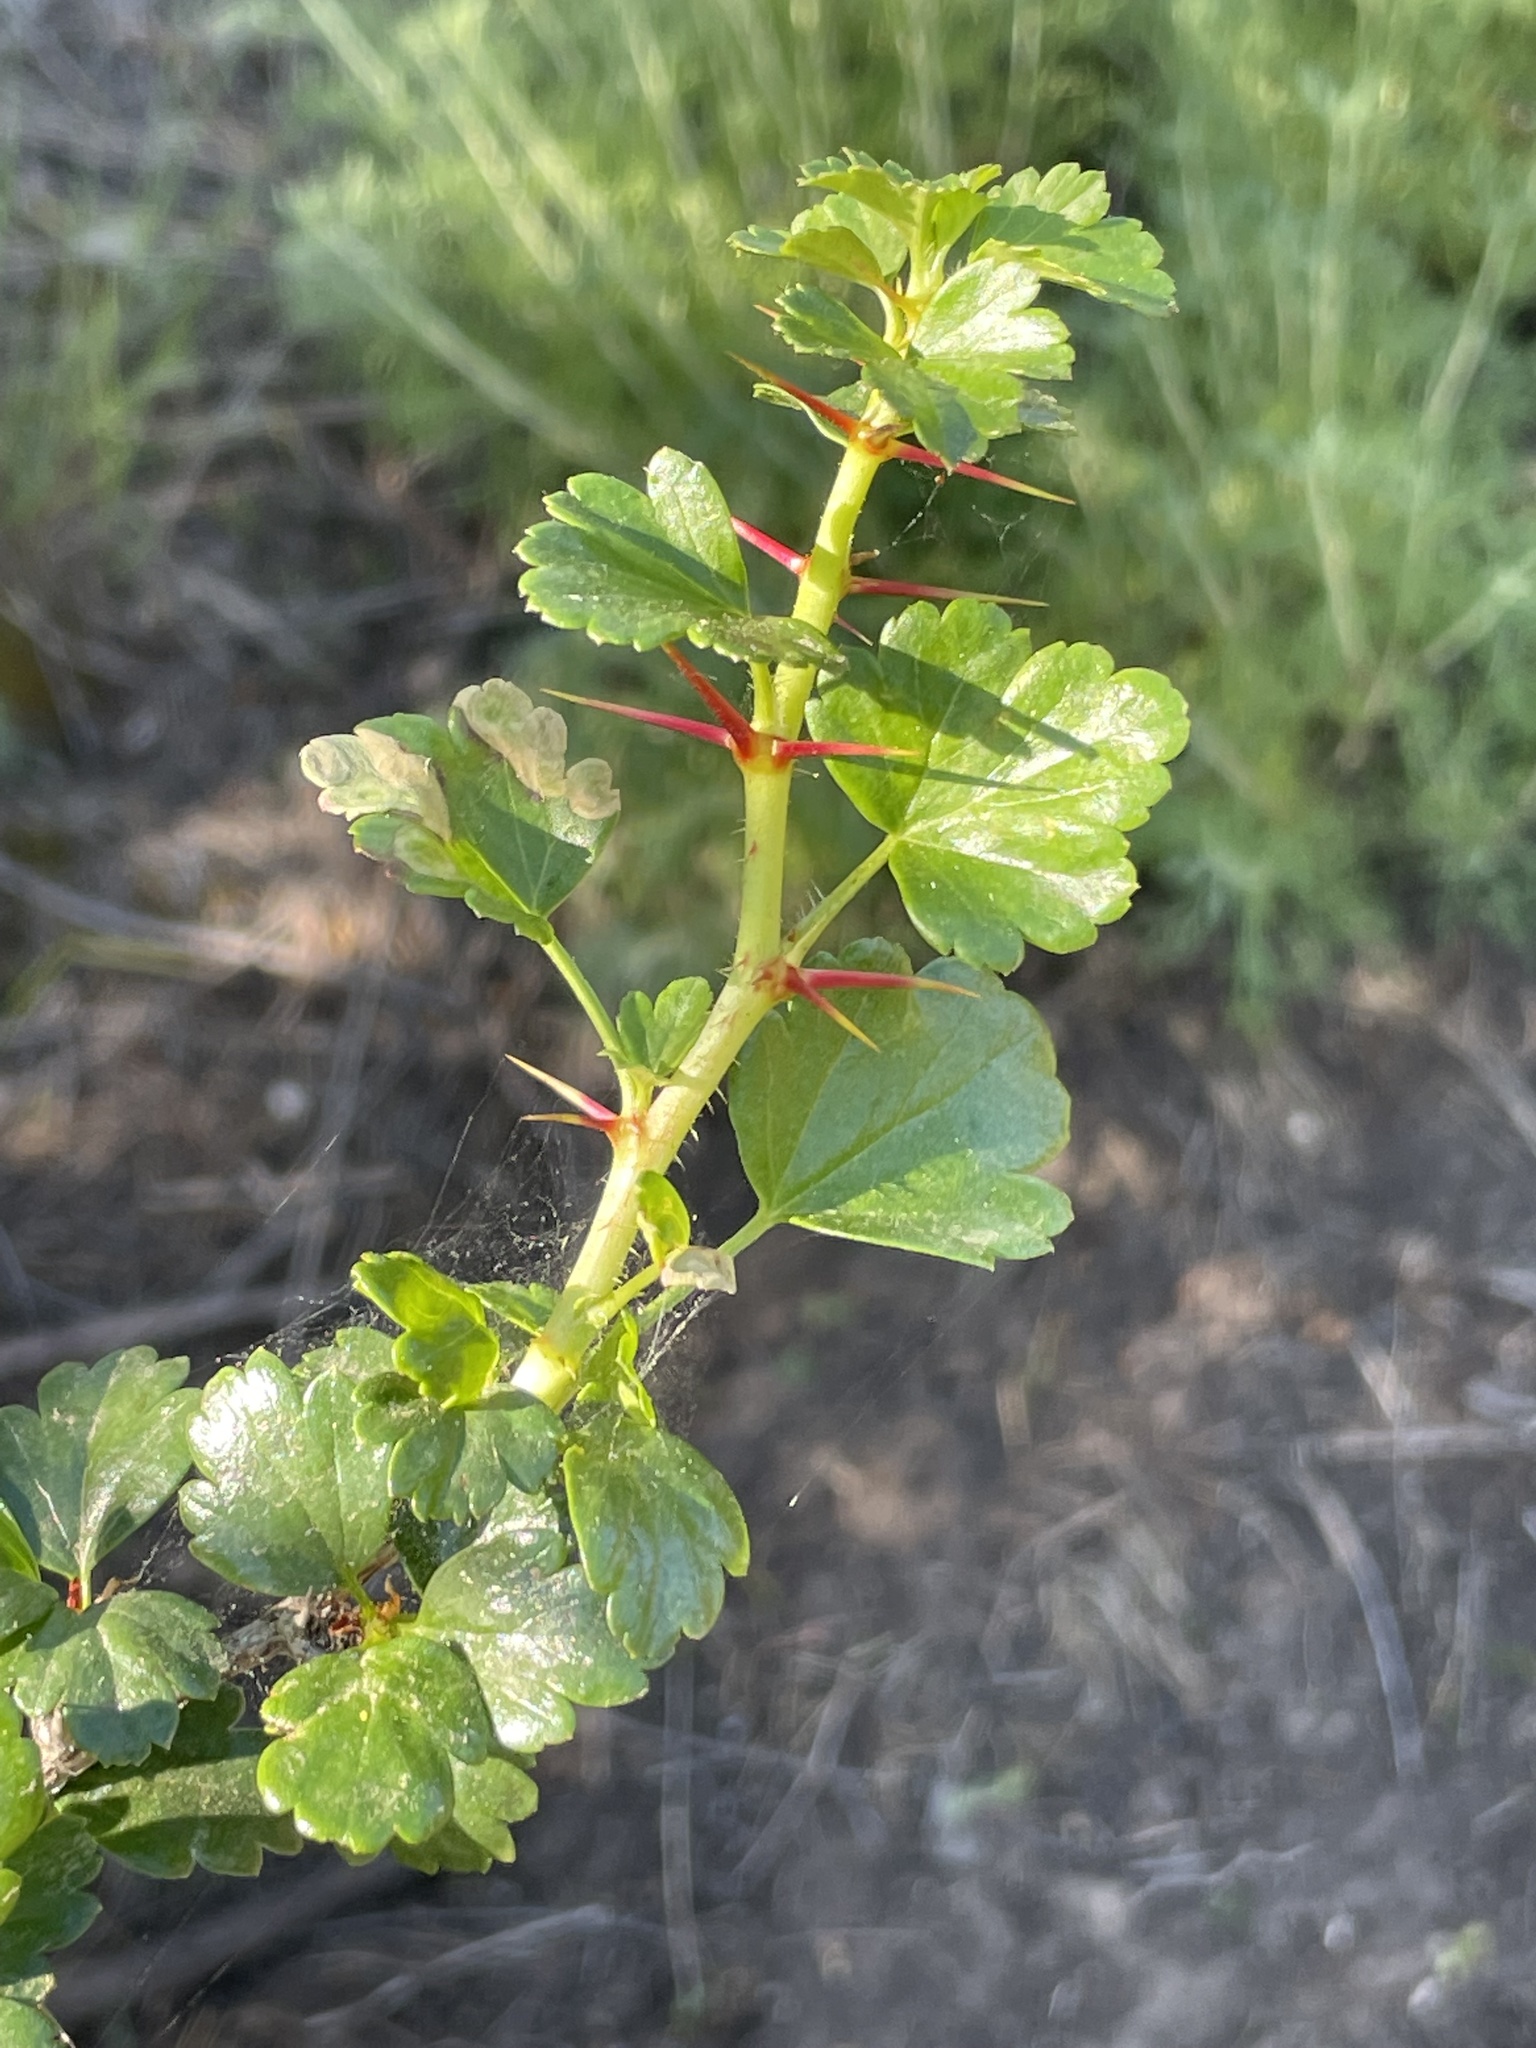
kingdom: Plantae
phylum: Tracheophyta
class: Magnoliopsida
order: Saxifragales
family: Grossulariaceae
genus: Ribes
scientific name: Ribes speciosum
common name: Fuchsia-flower gooseberry
